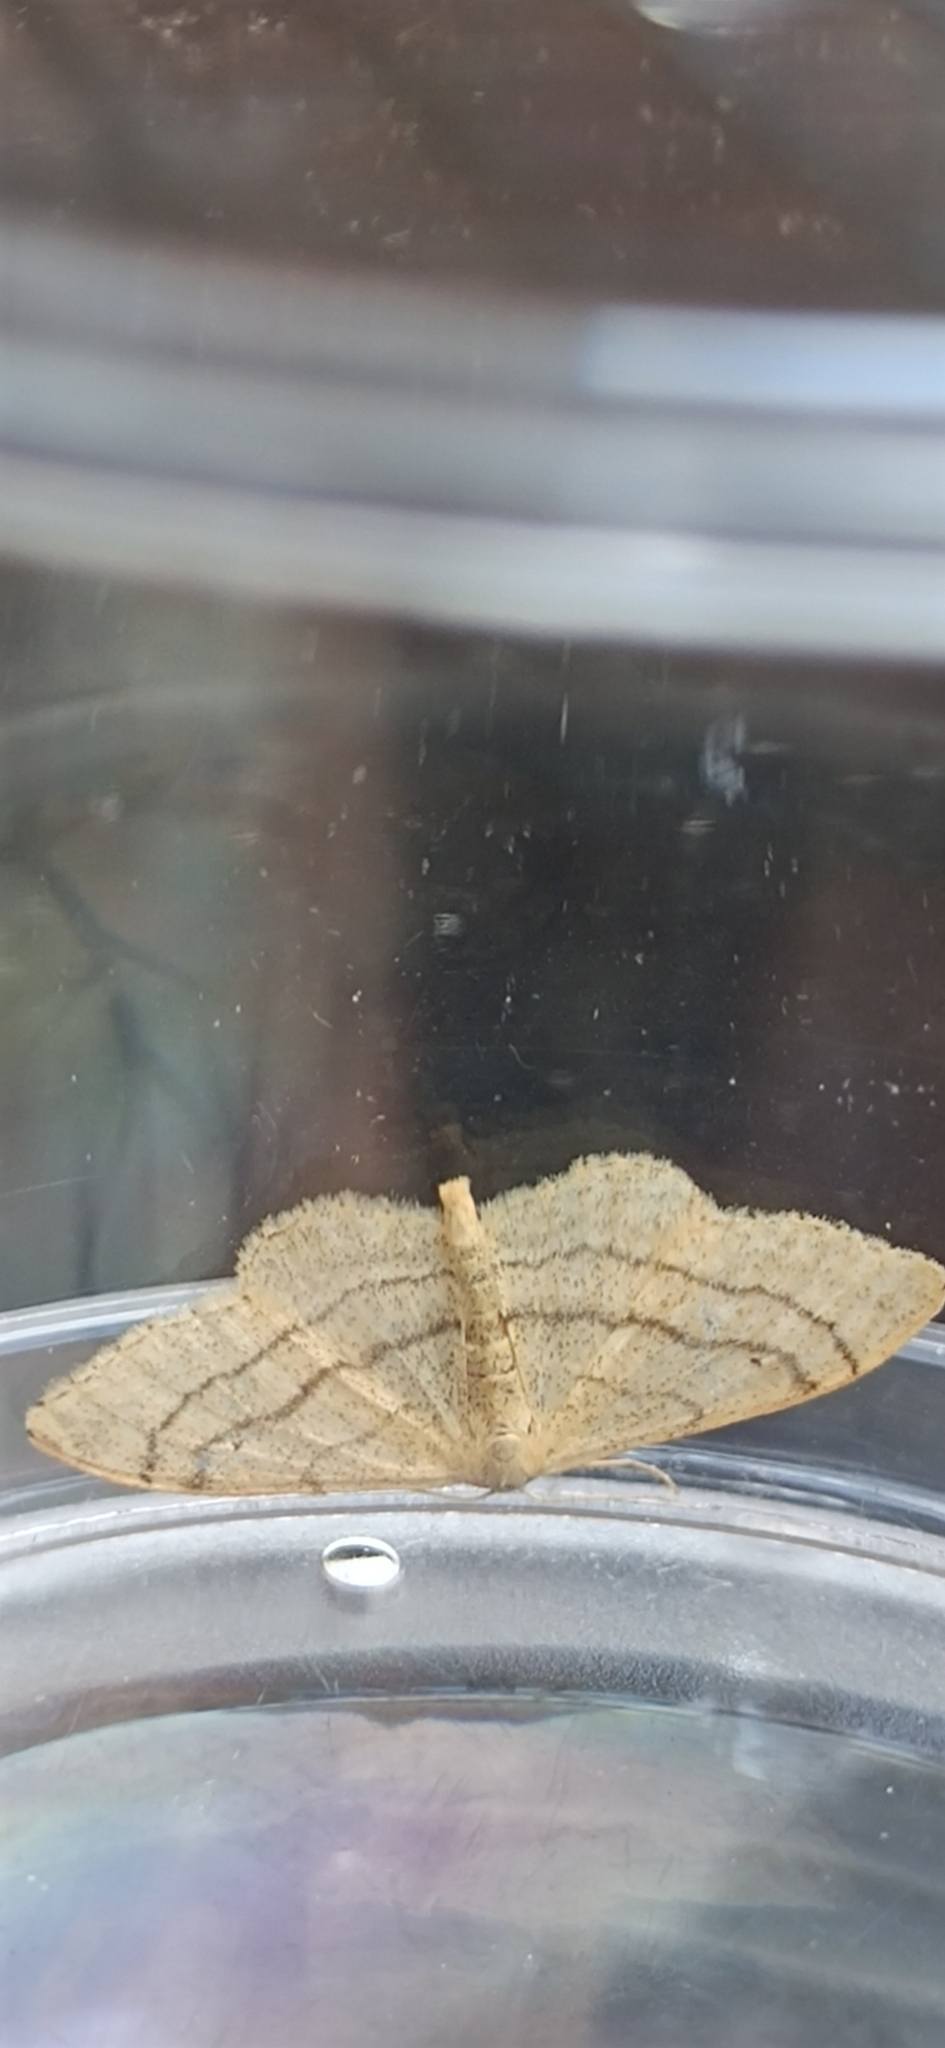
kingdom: Animalia
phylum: Arthropoda
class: Insecta
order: Lepidoptera
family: Geometridae
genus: Idaea
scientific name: Idaea aversata
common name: Riband wave
